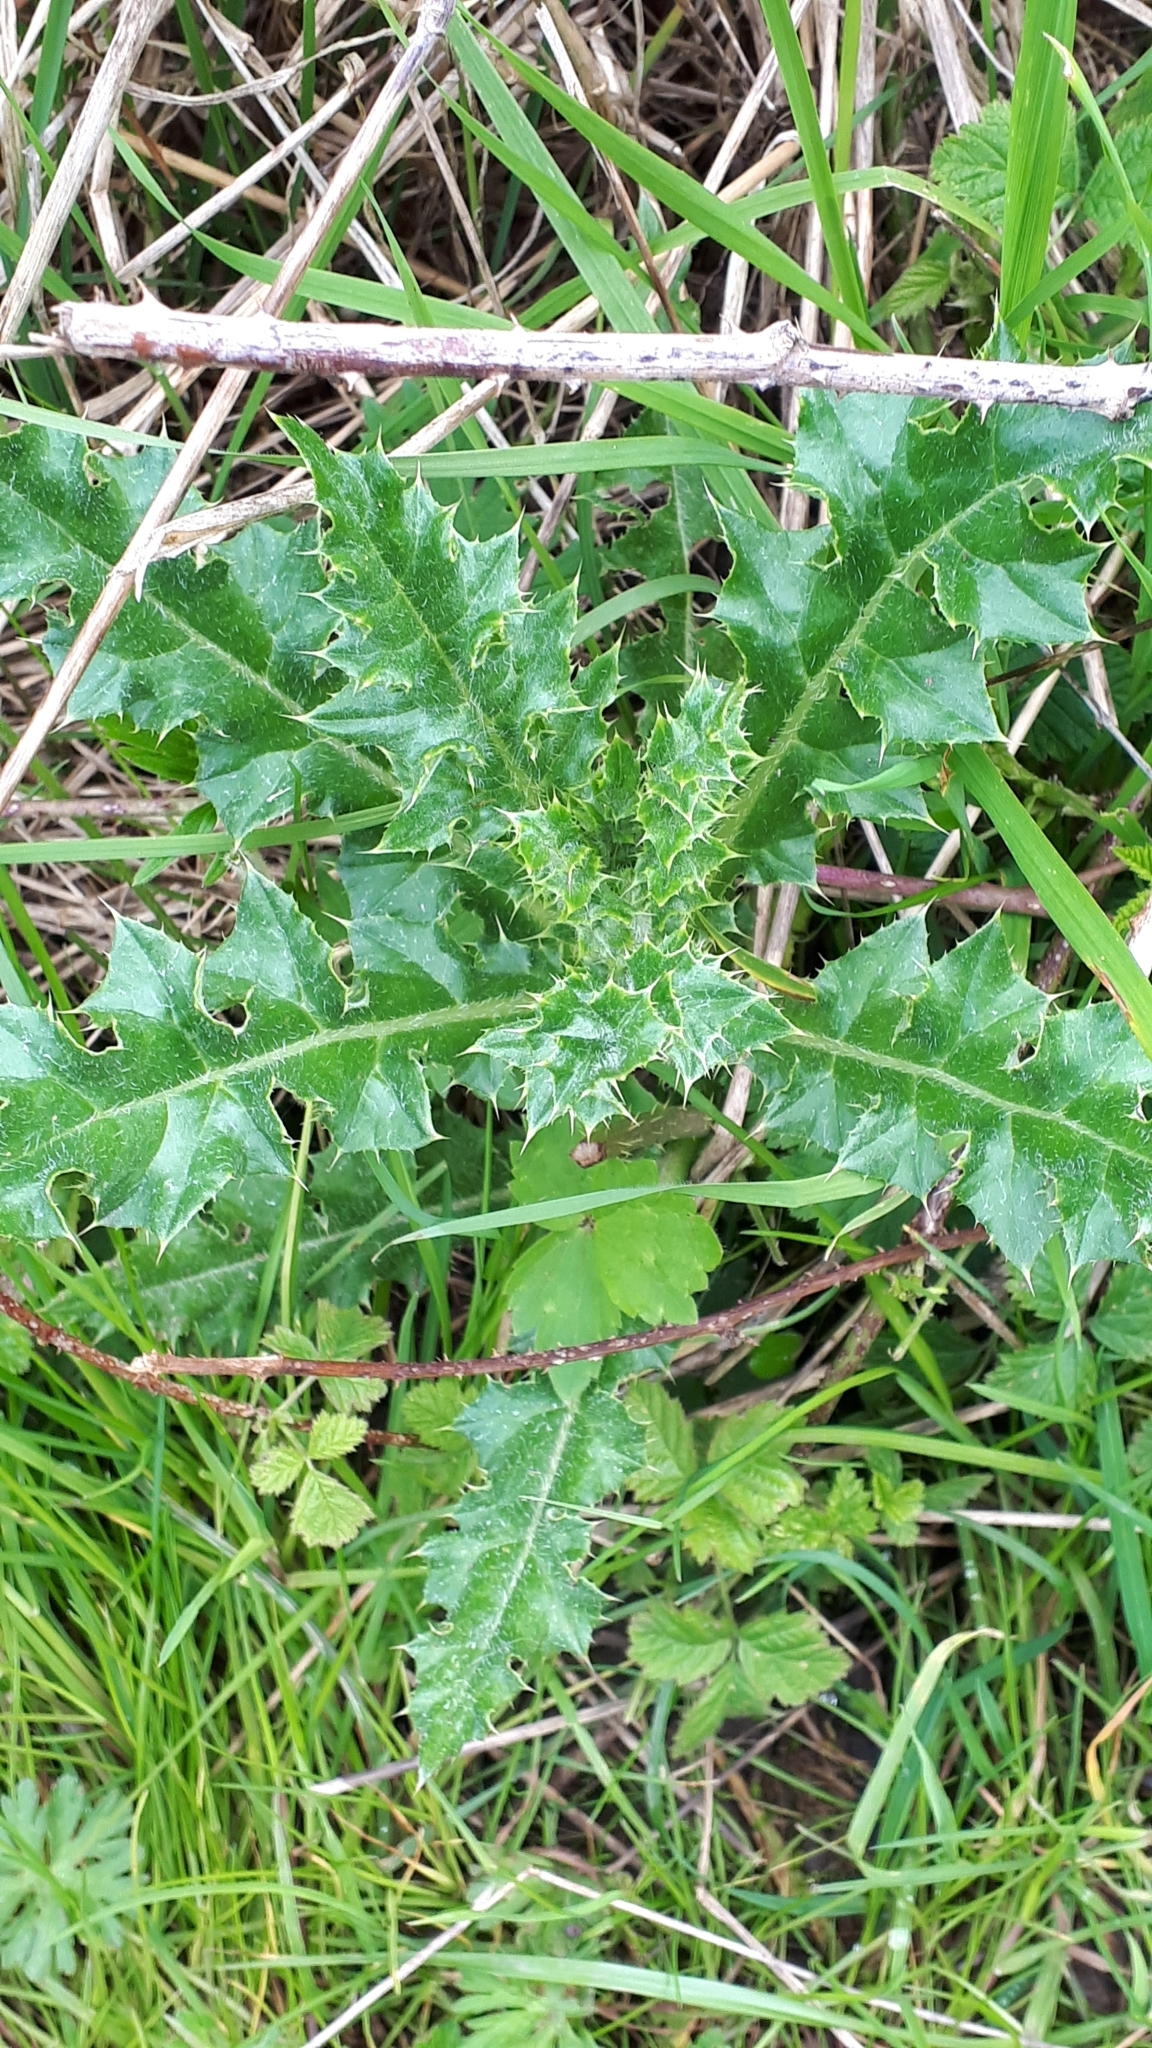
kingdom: Plantae
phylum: Tracheophyta
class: Magnoliopsida
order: Asterales
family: Asteraceae
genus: Cirsium
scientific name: Cirsium arvense
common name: Creeping thistle
